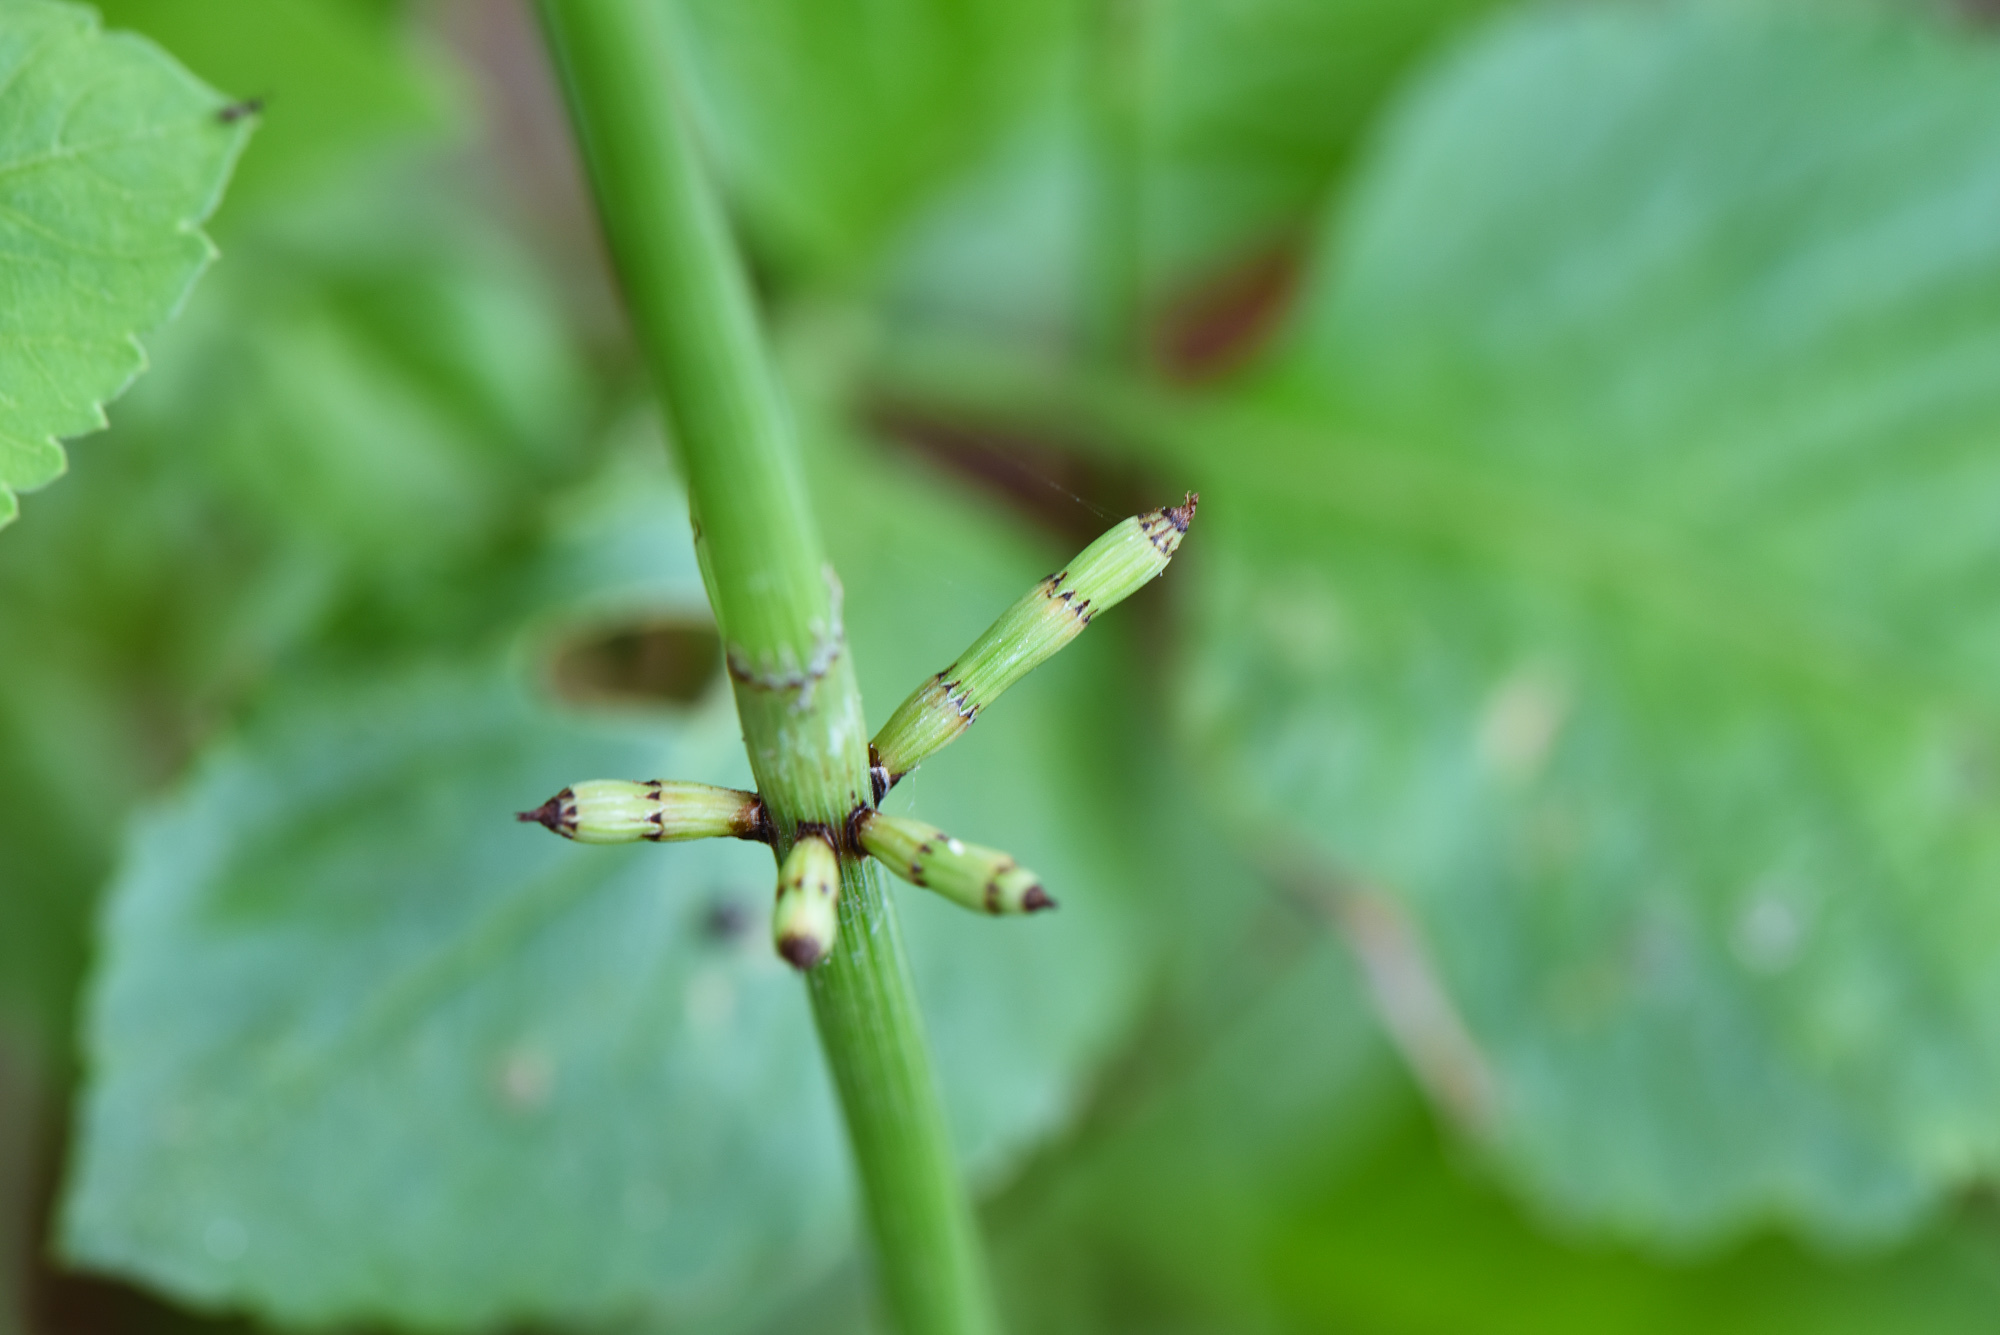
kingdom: Plantae
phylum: Tracheophyta
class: Polypodiopsida
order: Equisetales
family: Equisetaceae
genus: Equisetum
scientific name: Equisetum ramosissimum
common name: Branched horsetail
